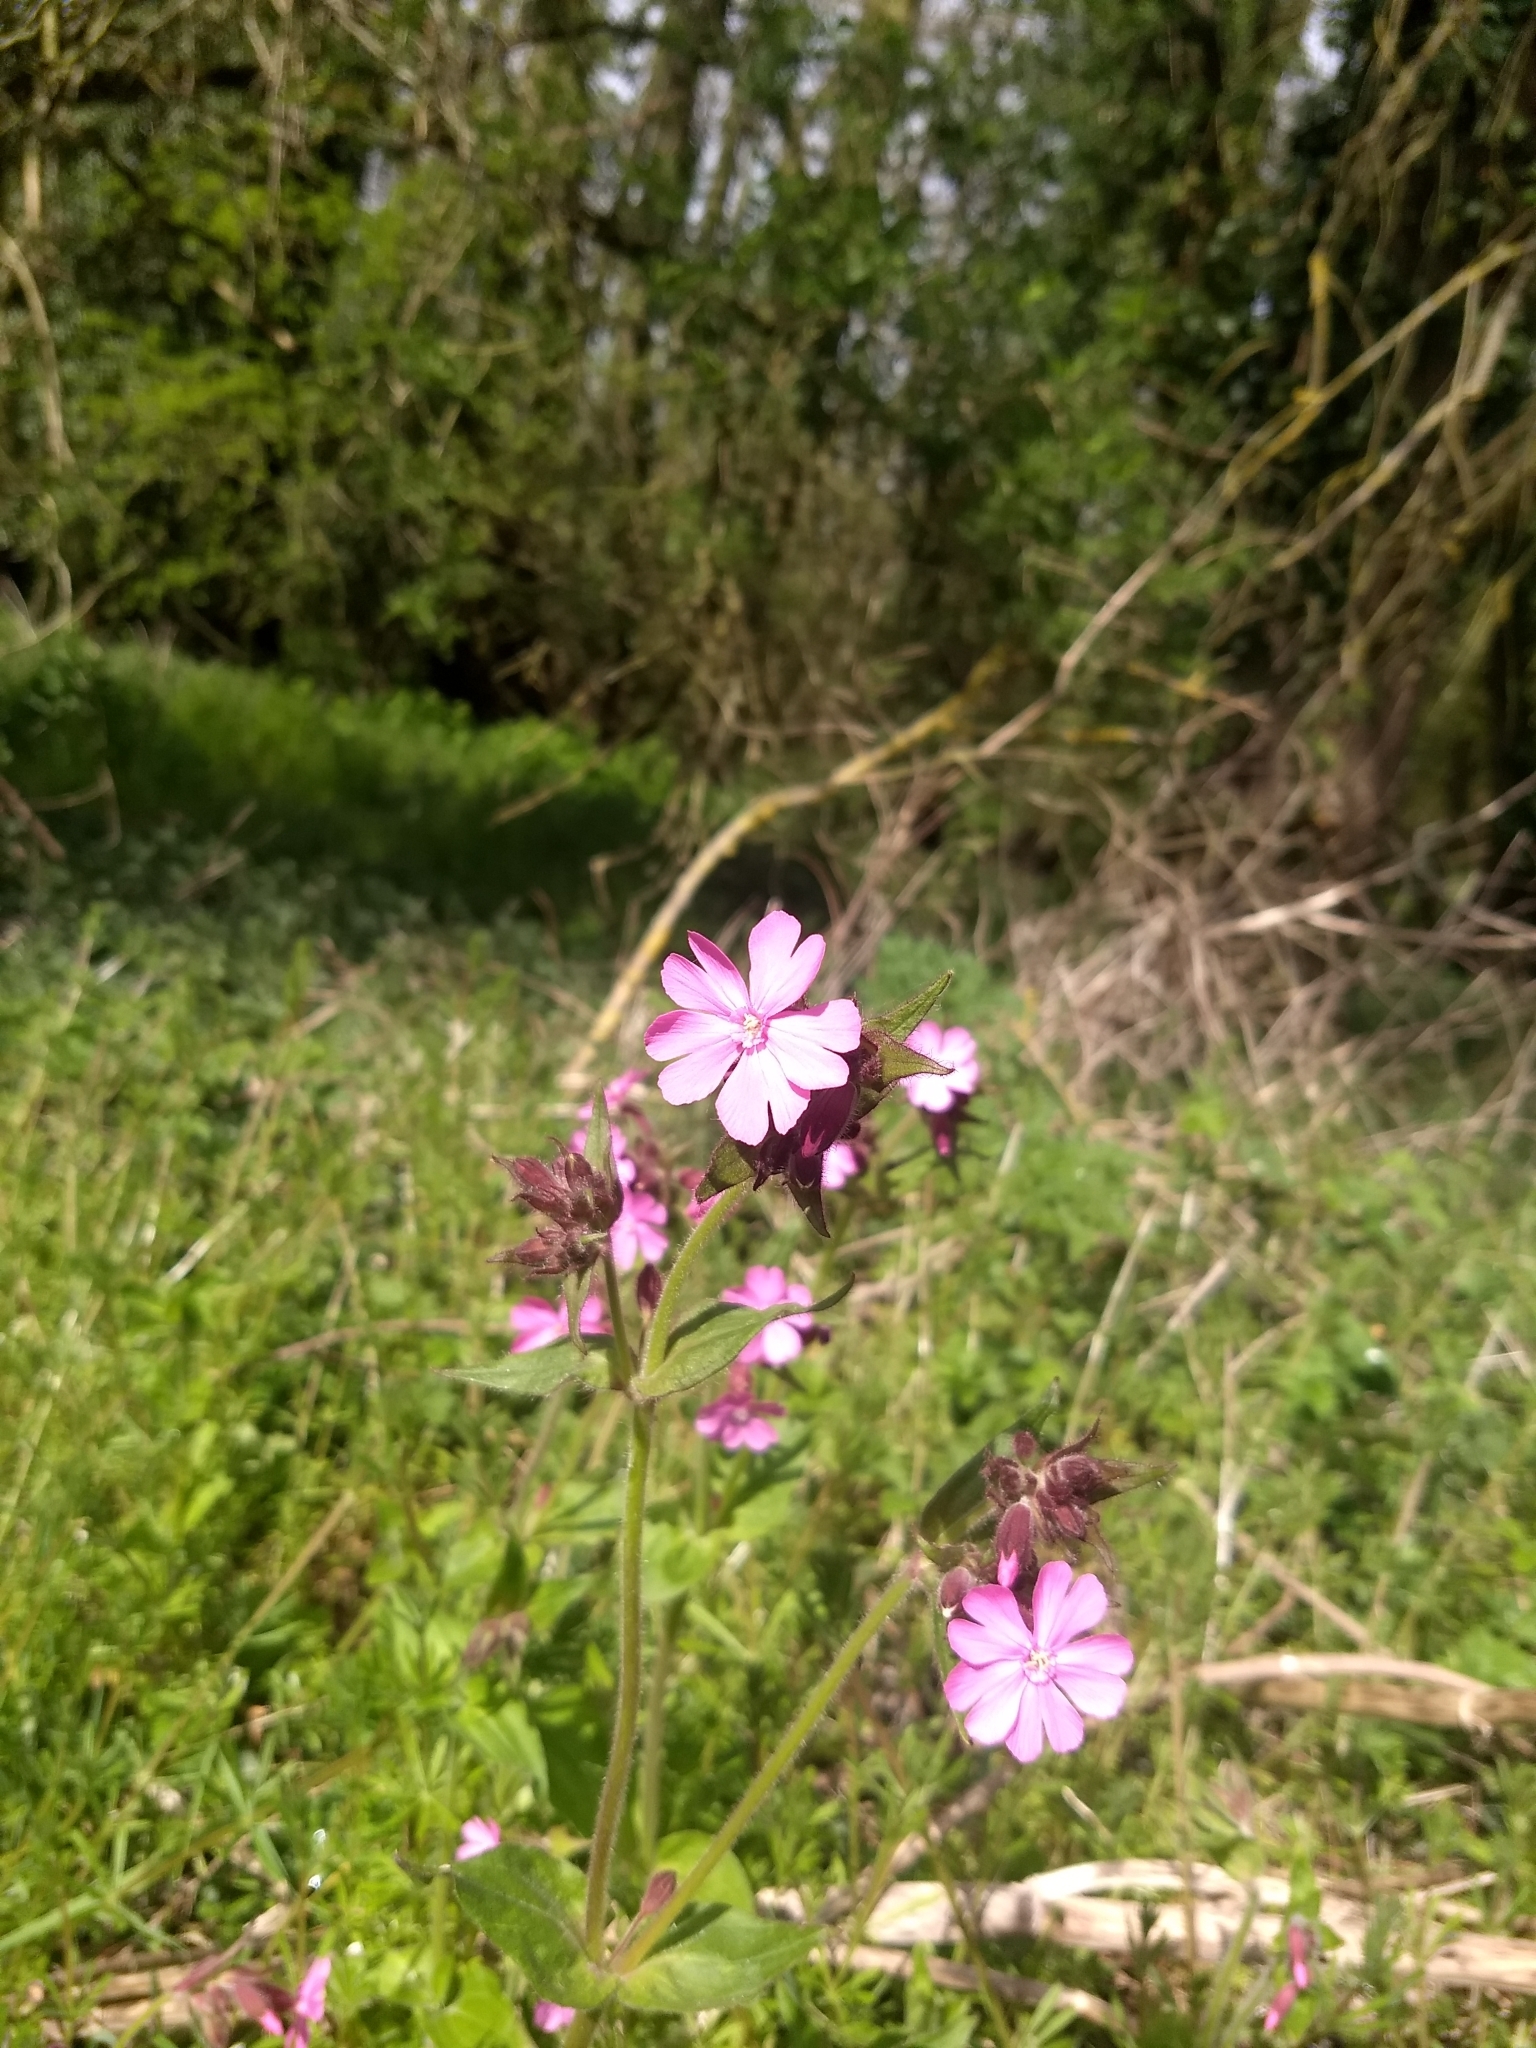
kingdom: Plantae
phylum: Tracheophyta
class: Magnoliopsida
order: Caryophyllales
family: Caryophyllaceae
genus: Silene
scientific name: Silene dioica
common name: Red campion
